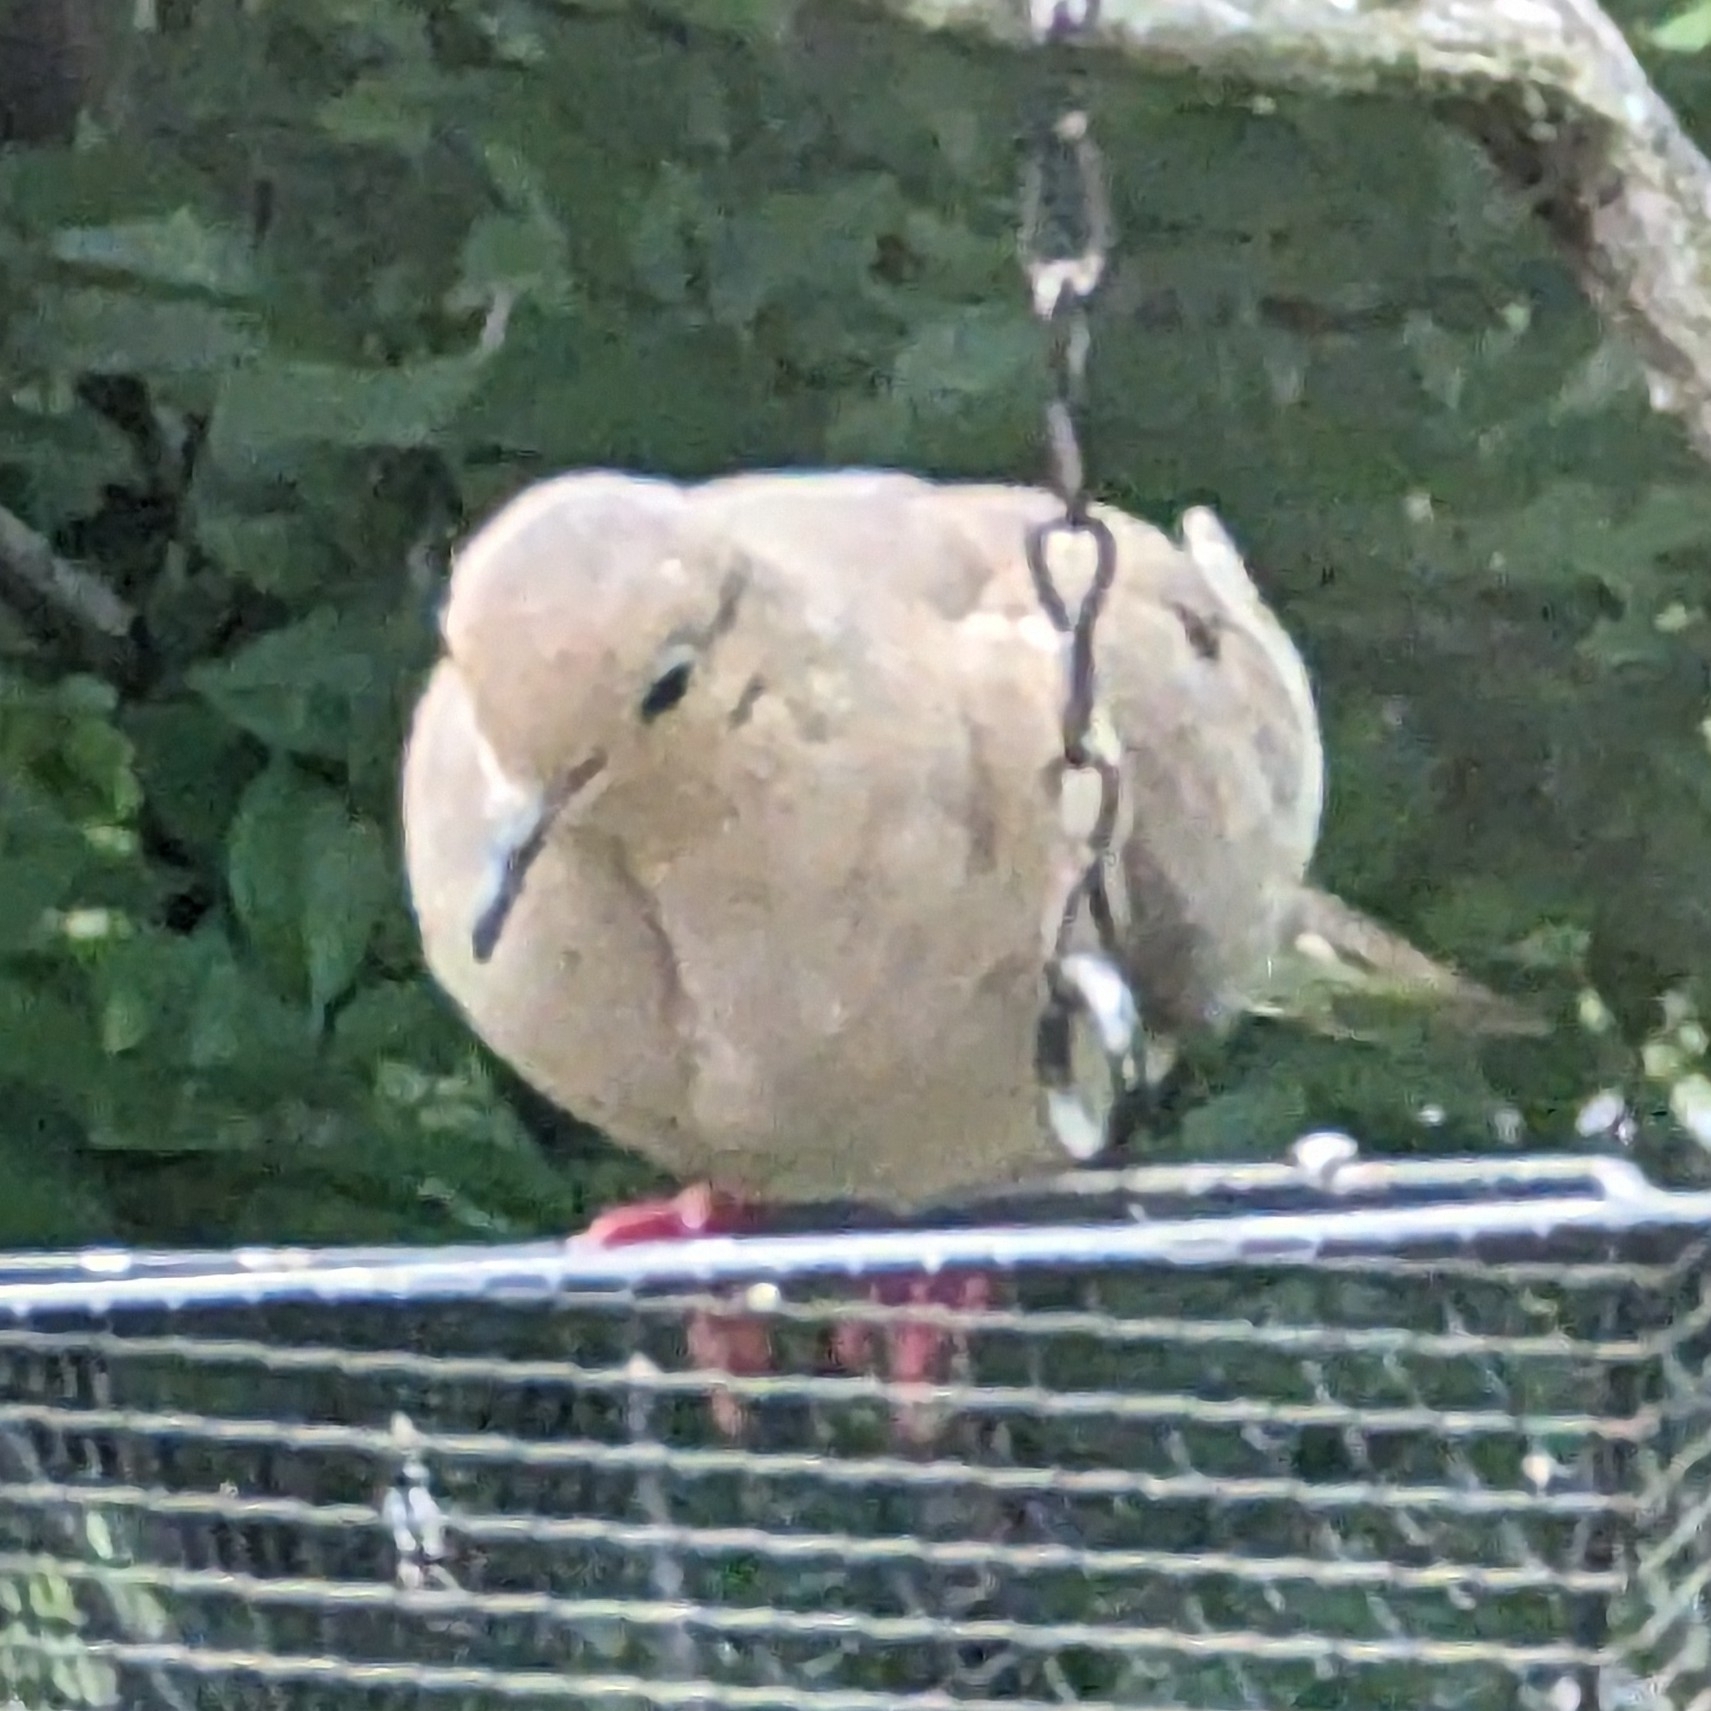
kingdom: Animalia
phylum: Chordata
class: Aves
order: Columbiformes
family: Columbidae
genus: Zenaida
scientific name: Zenaida macroura
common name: Mourning dove
